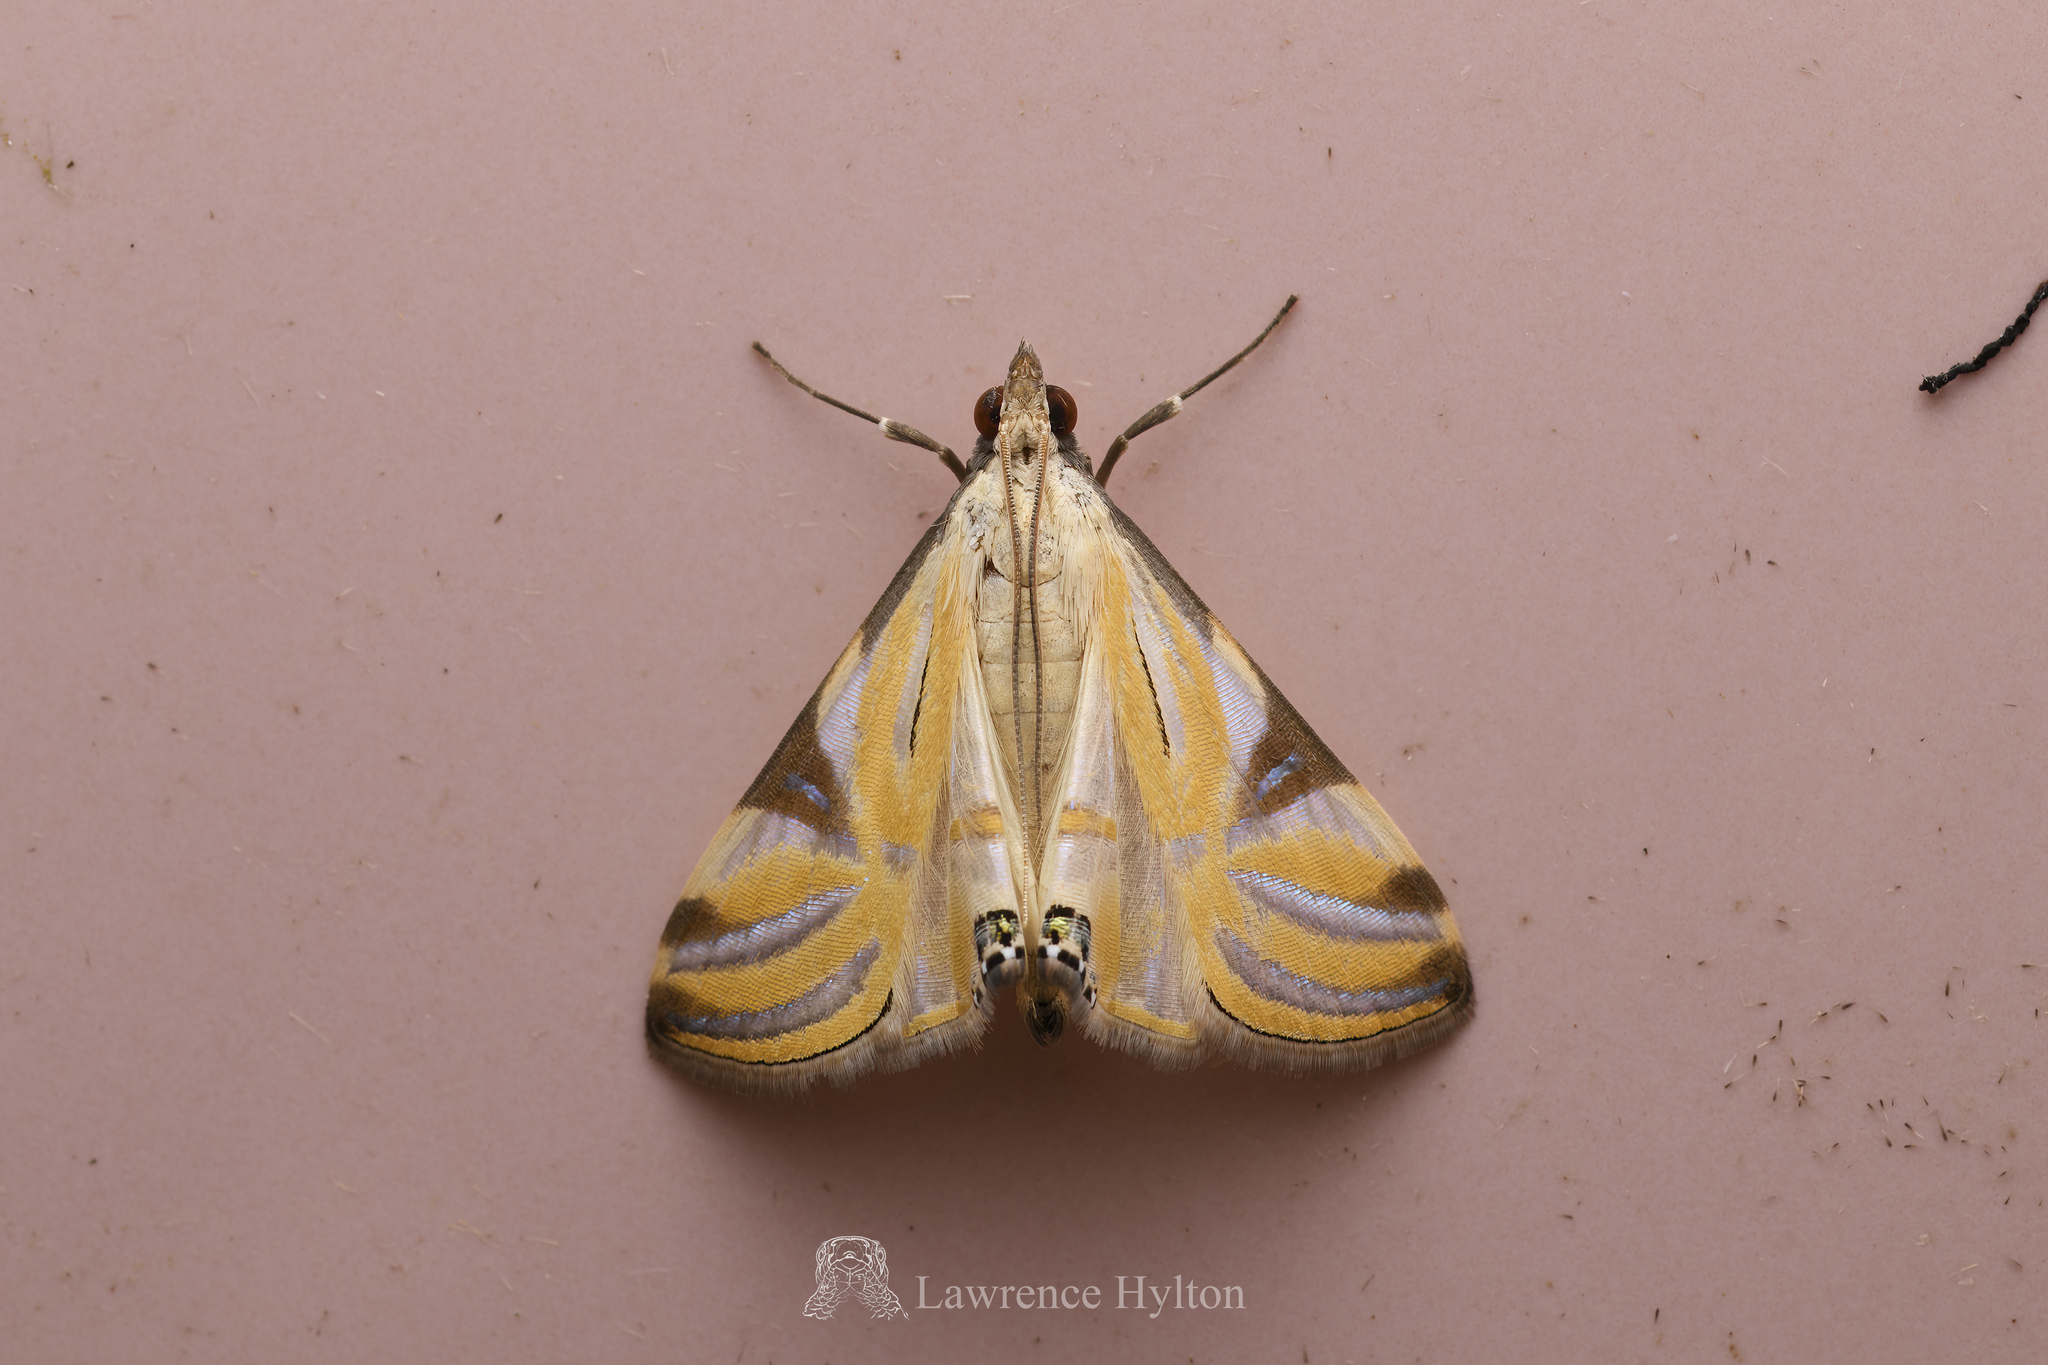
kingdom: Animalia
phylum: Arthropoda
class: Insecta
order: Lepidoptera
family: Crambidae
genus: Talanga
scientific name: Talanga sexpunctalis
